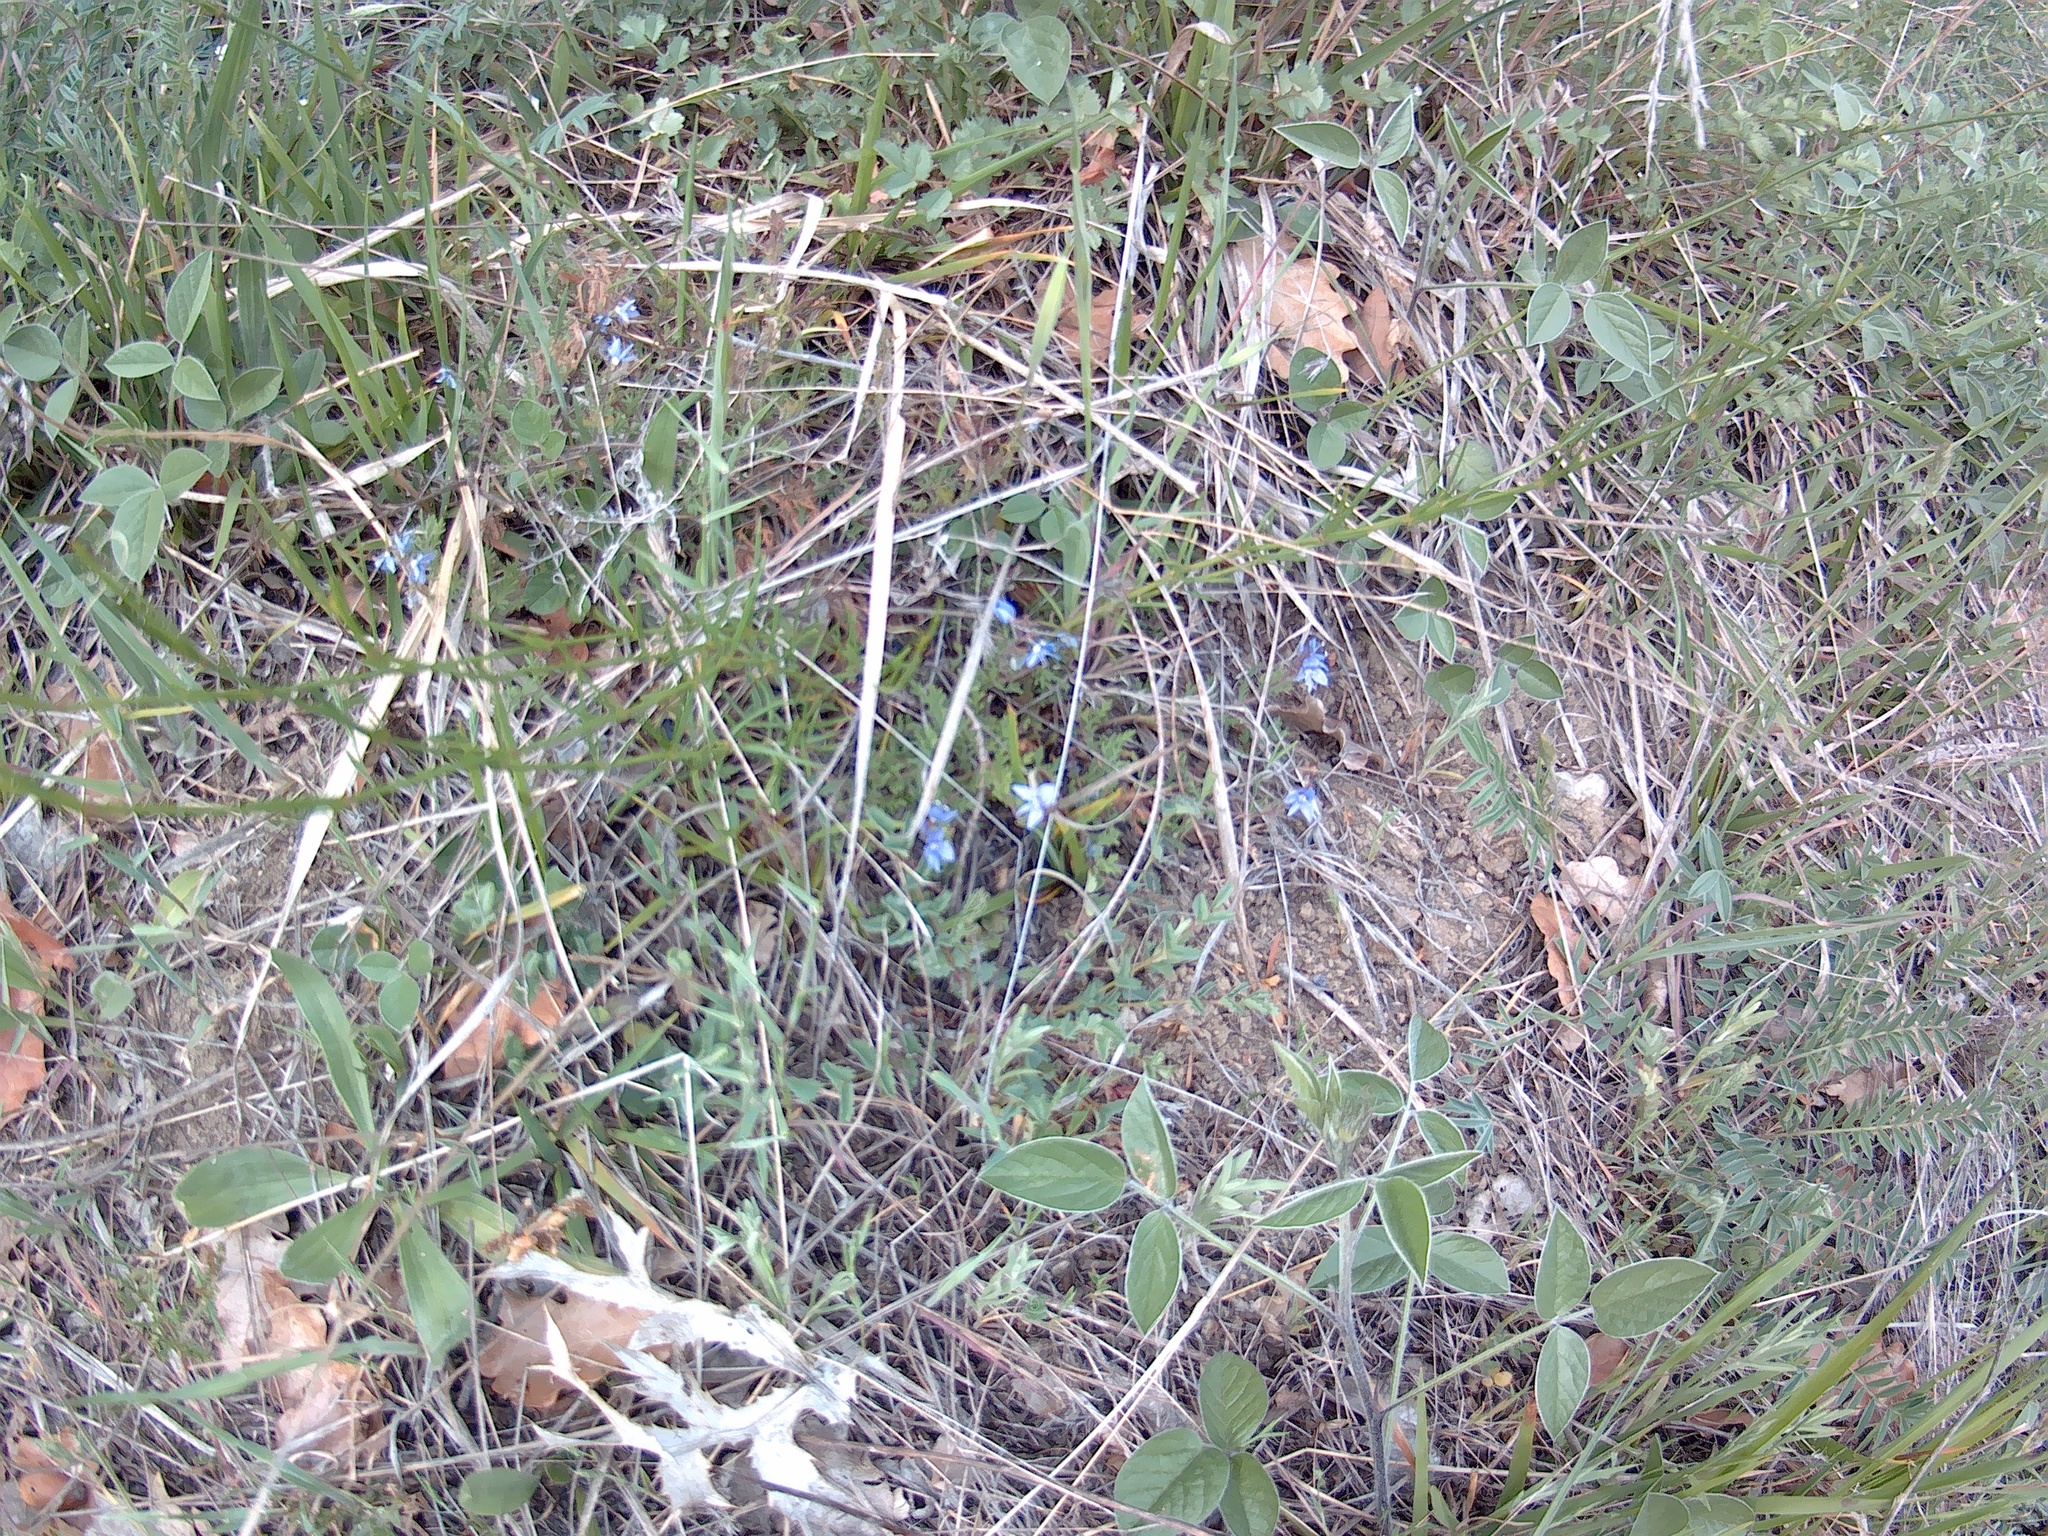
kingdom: Plantae
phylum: Tracheophyta
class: Magnoliopsida
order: Lamiales
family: Plantaginaceae
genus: Veronica
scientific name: Veronica capsellicarpa
